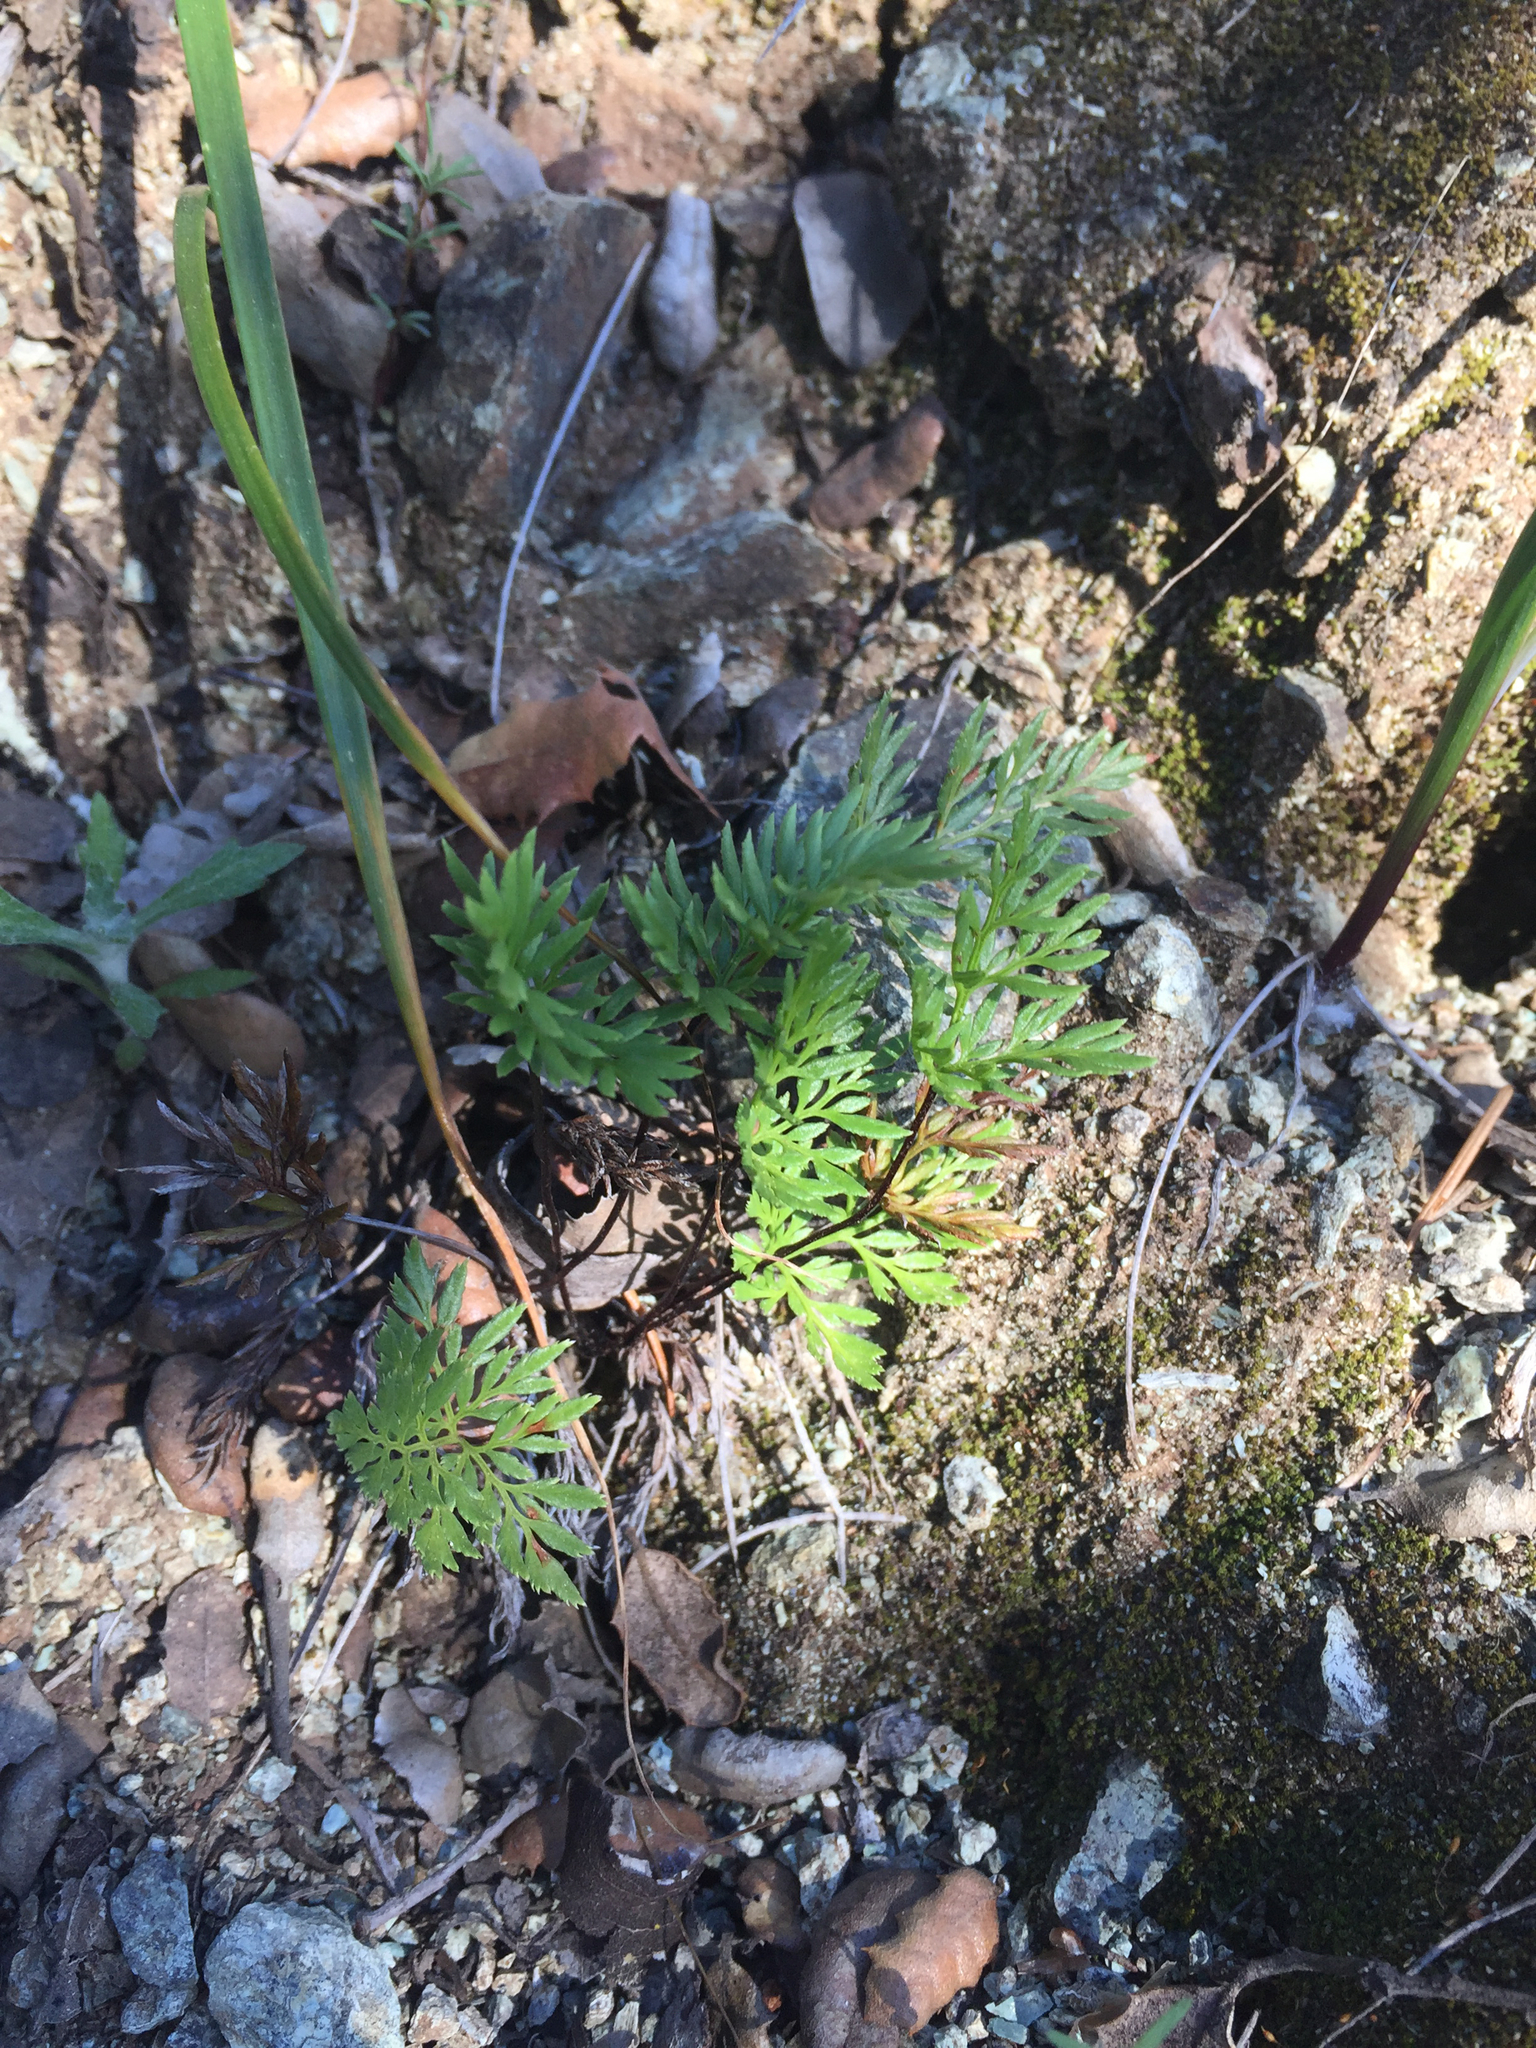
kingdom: Plantae
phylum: Tracheophyta
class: Polypodiopsida
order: Polypodiales
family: Pteridaceae
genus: Aspidotis
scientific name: Aspidotis densa
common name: Indian's dream
